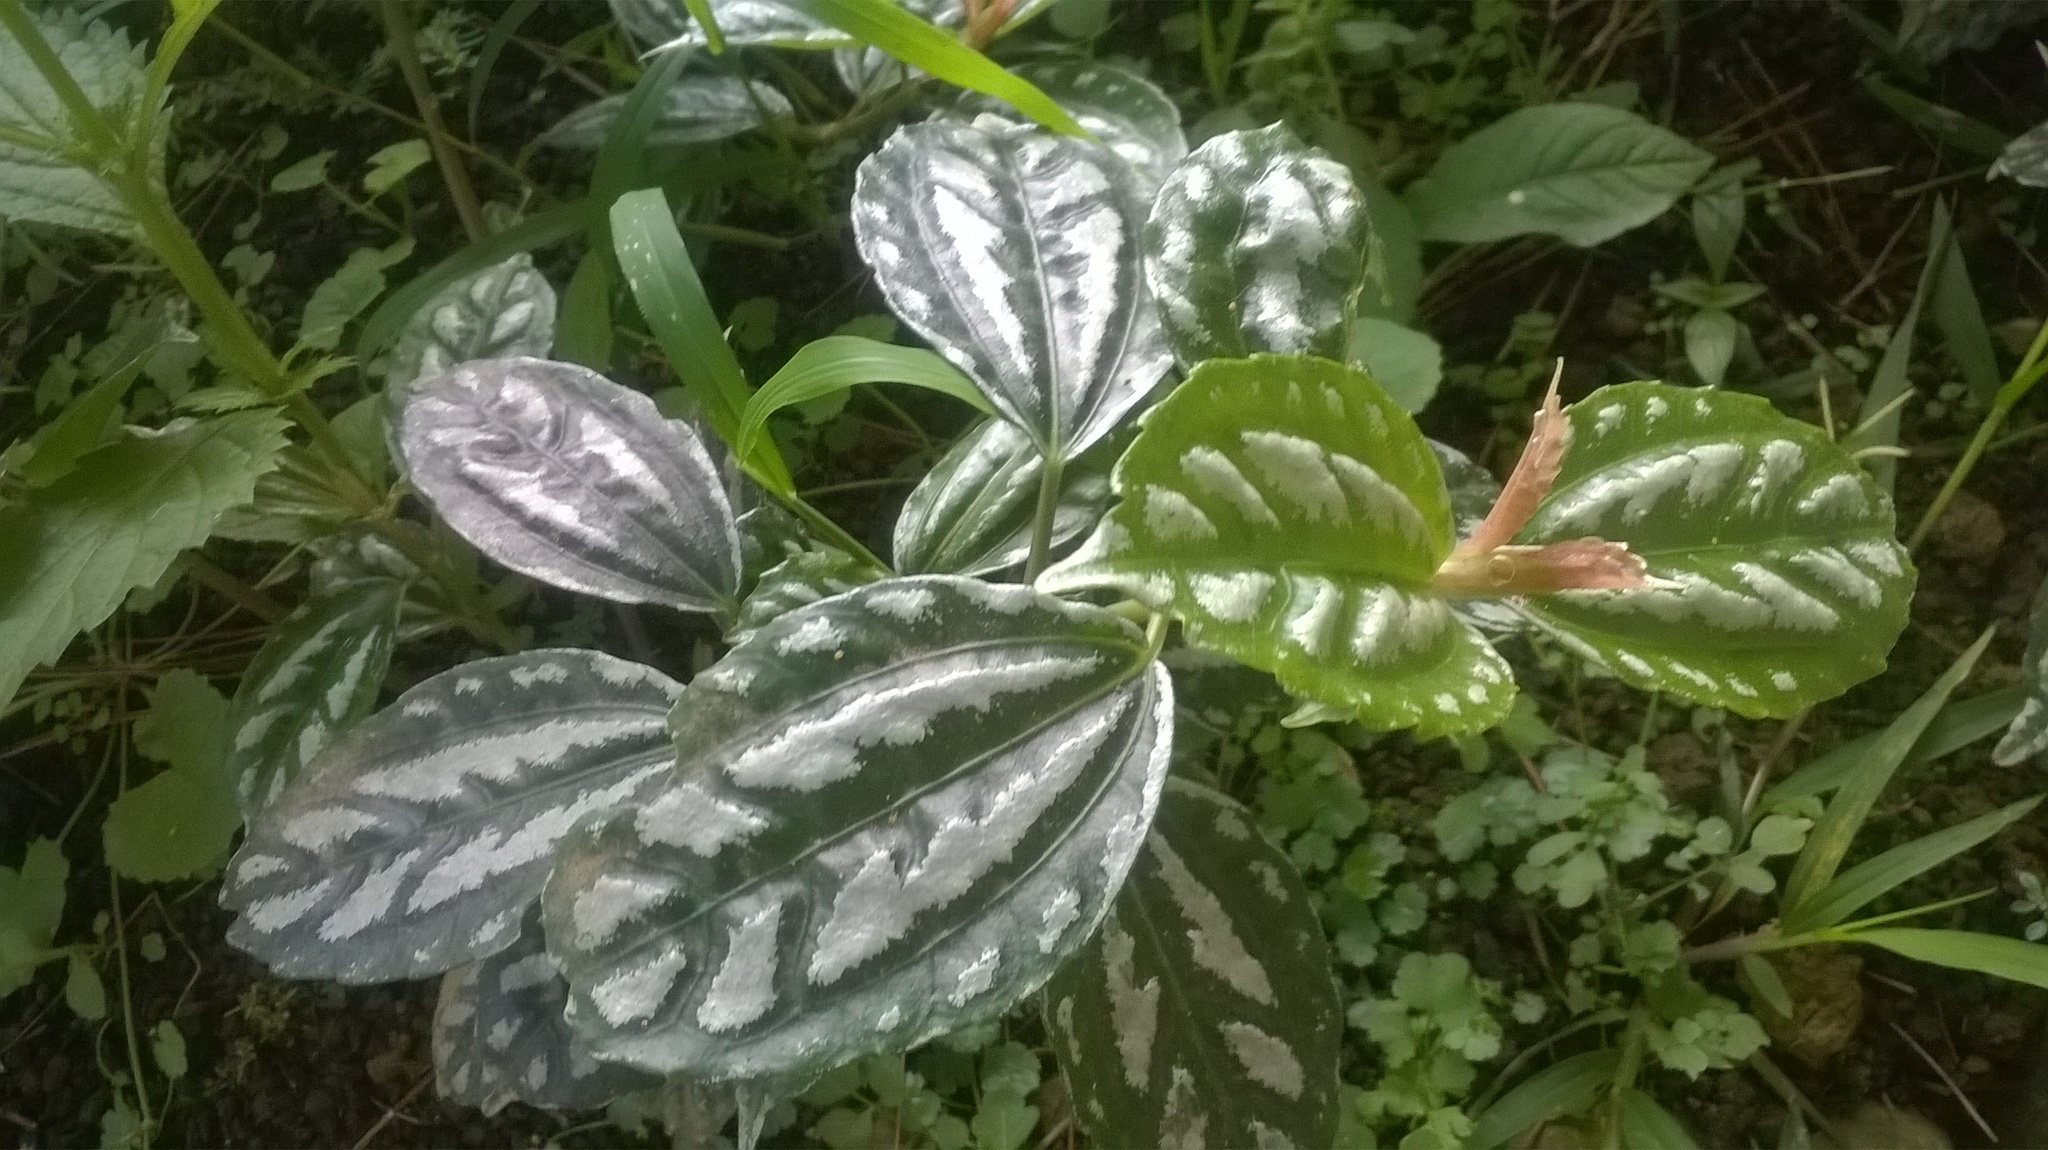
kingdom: Plantae
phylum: Tracheophyta
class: Magnoliopsida
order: Rosales
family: Urticaceae
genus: Pilea
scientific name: Pilea cadierei
